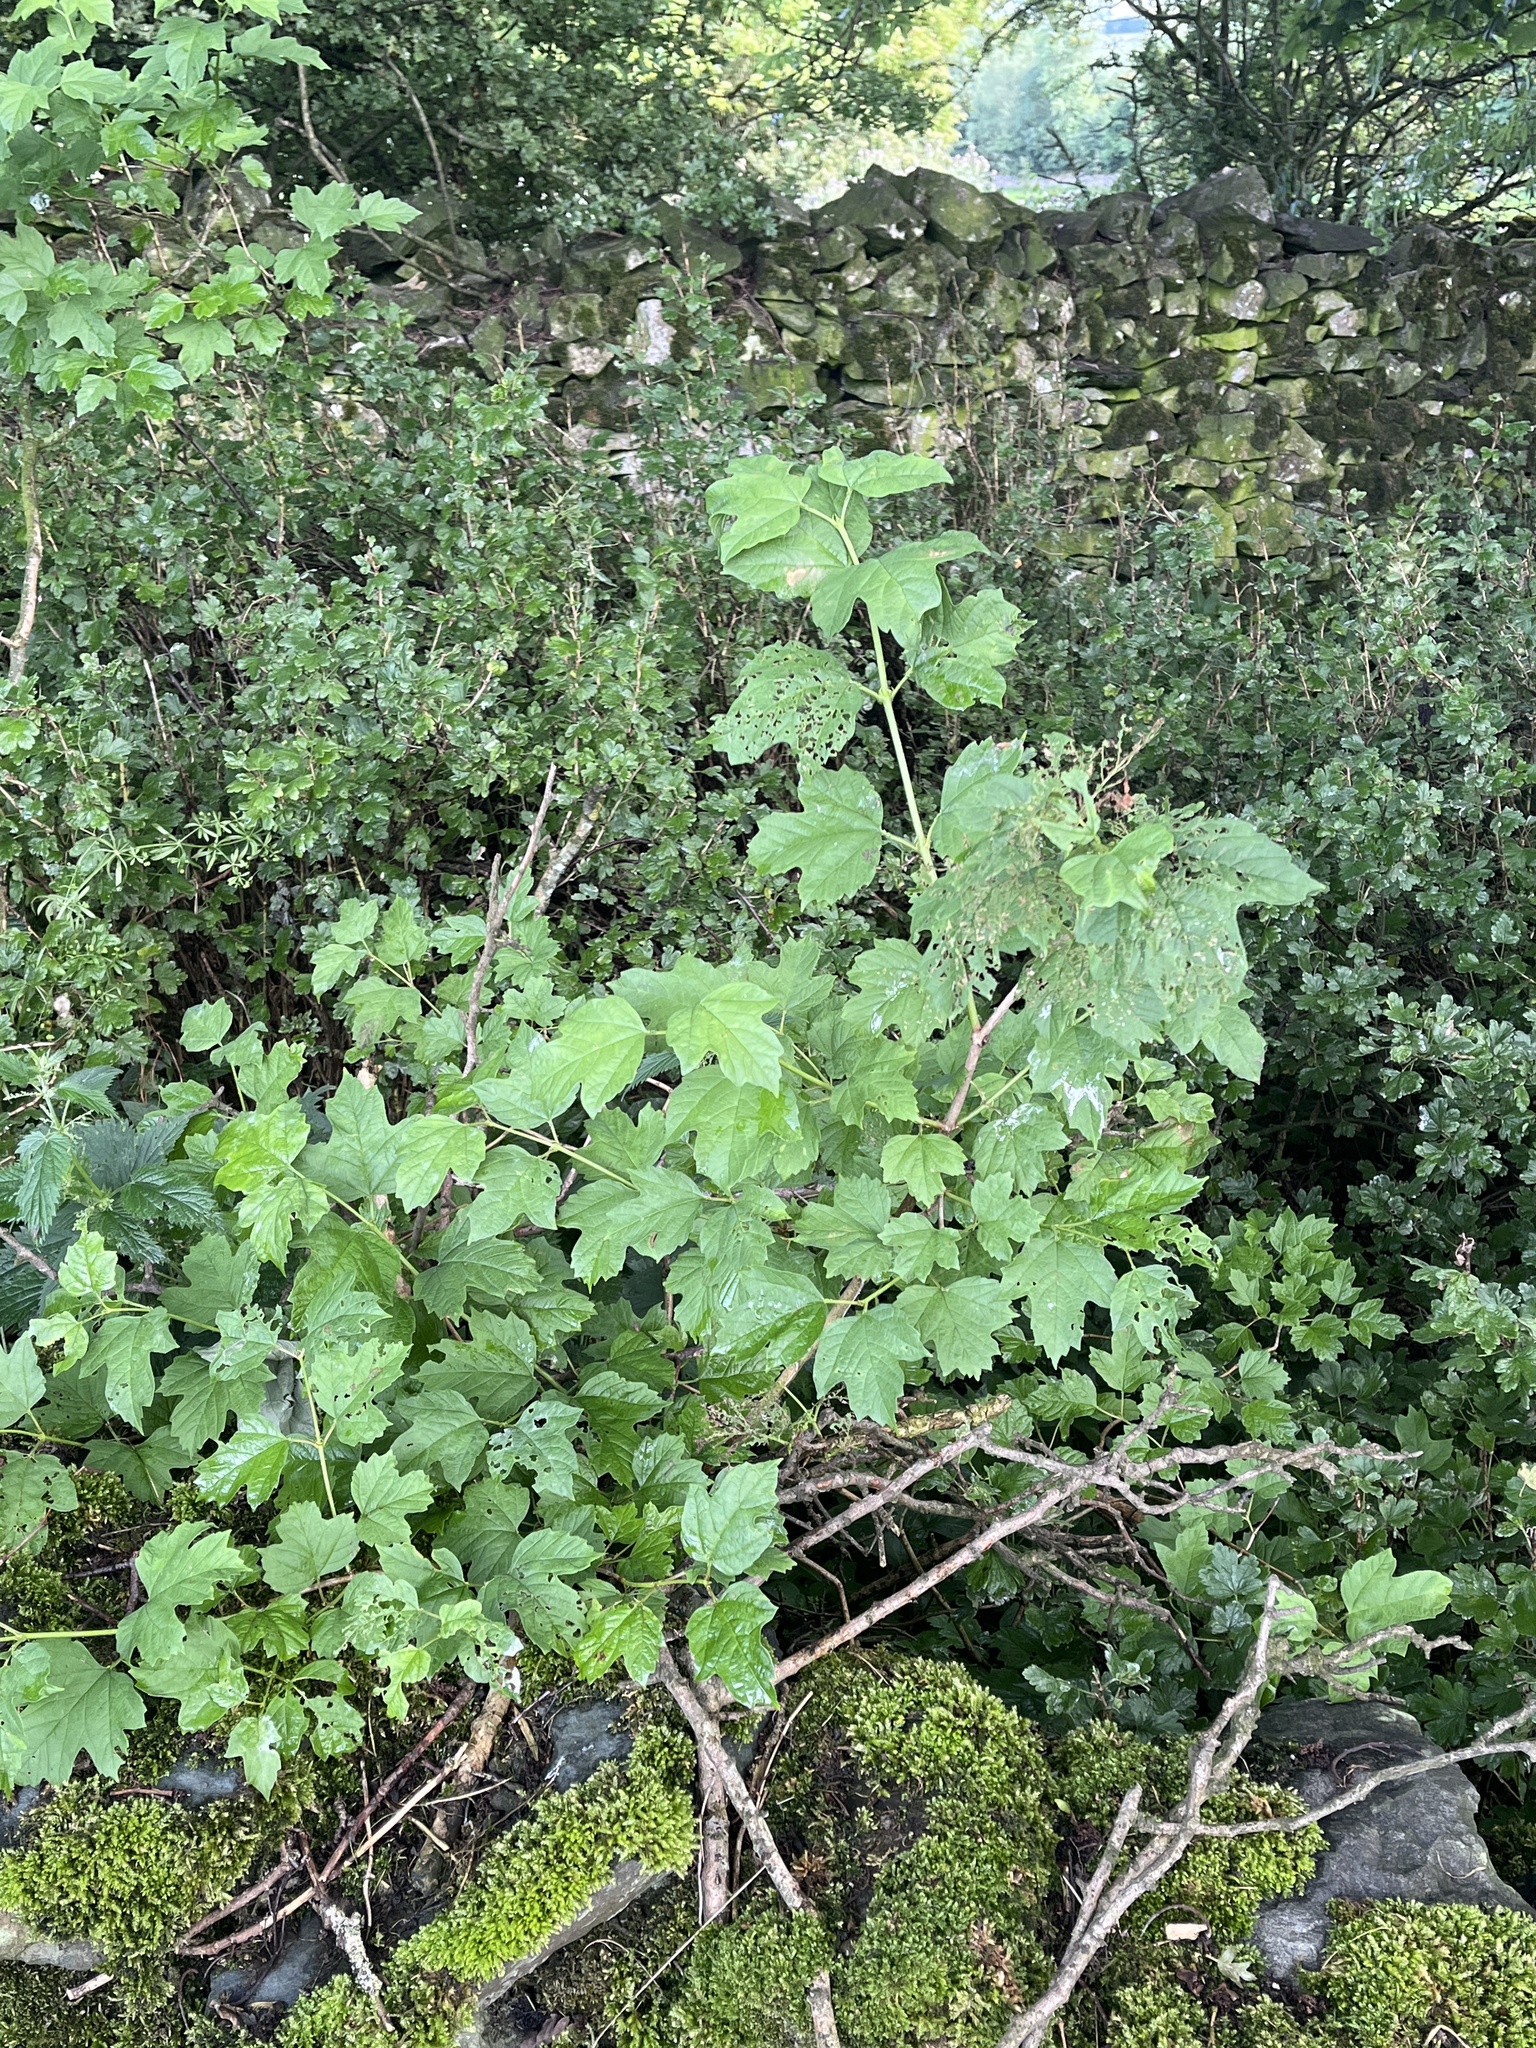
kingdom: Plantae
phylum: Tracheophyta
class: Magnoliopsida
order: Dipsacales
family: Viburnaceae
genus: Viburnum
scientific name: Viburnum opulus
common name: Guelder-rose
